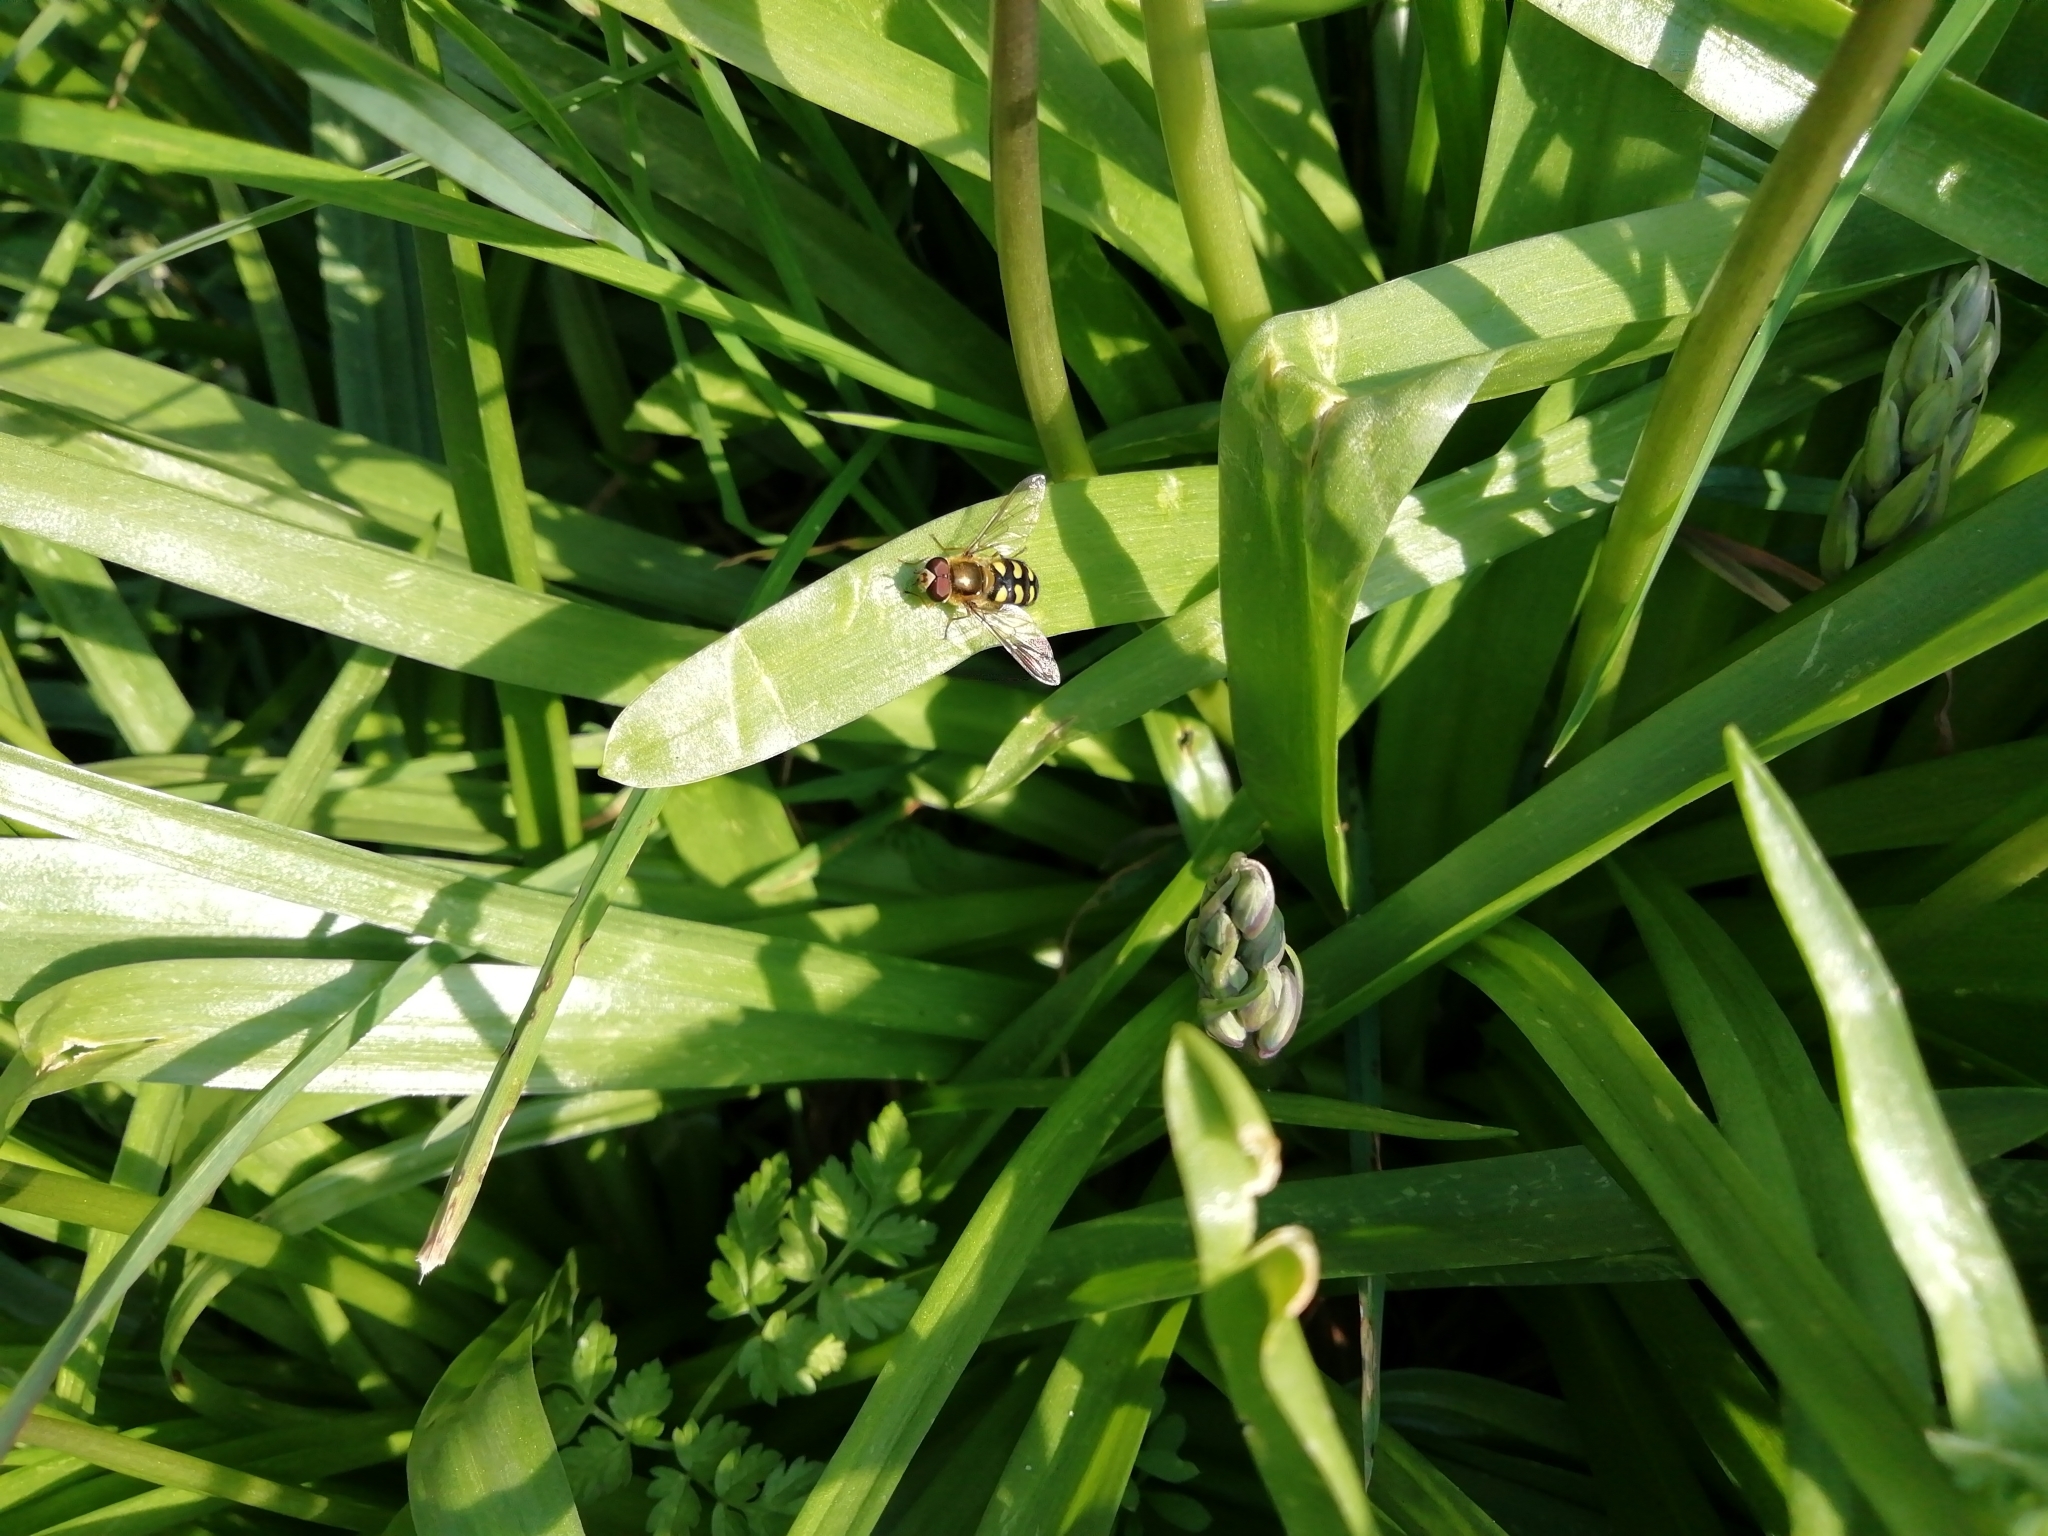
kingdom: Animalia
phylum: Arthropoda
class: Insecta
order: Diptera
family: Syrphidae
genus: Eupeodes
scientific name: Eupeodes
